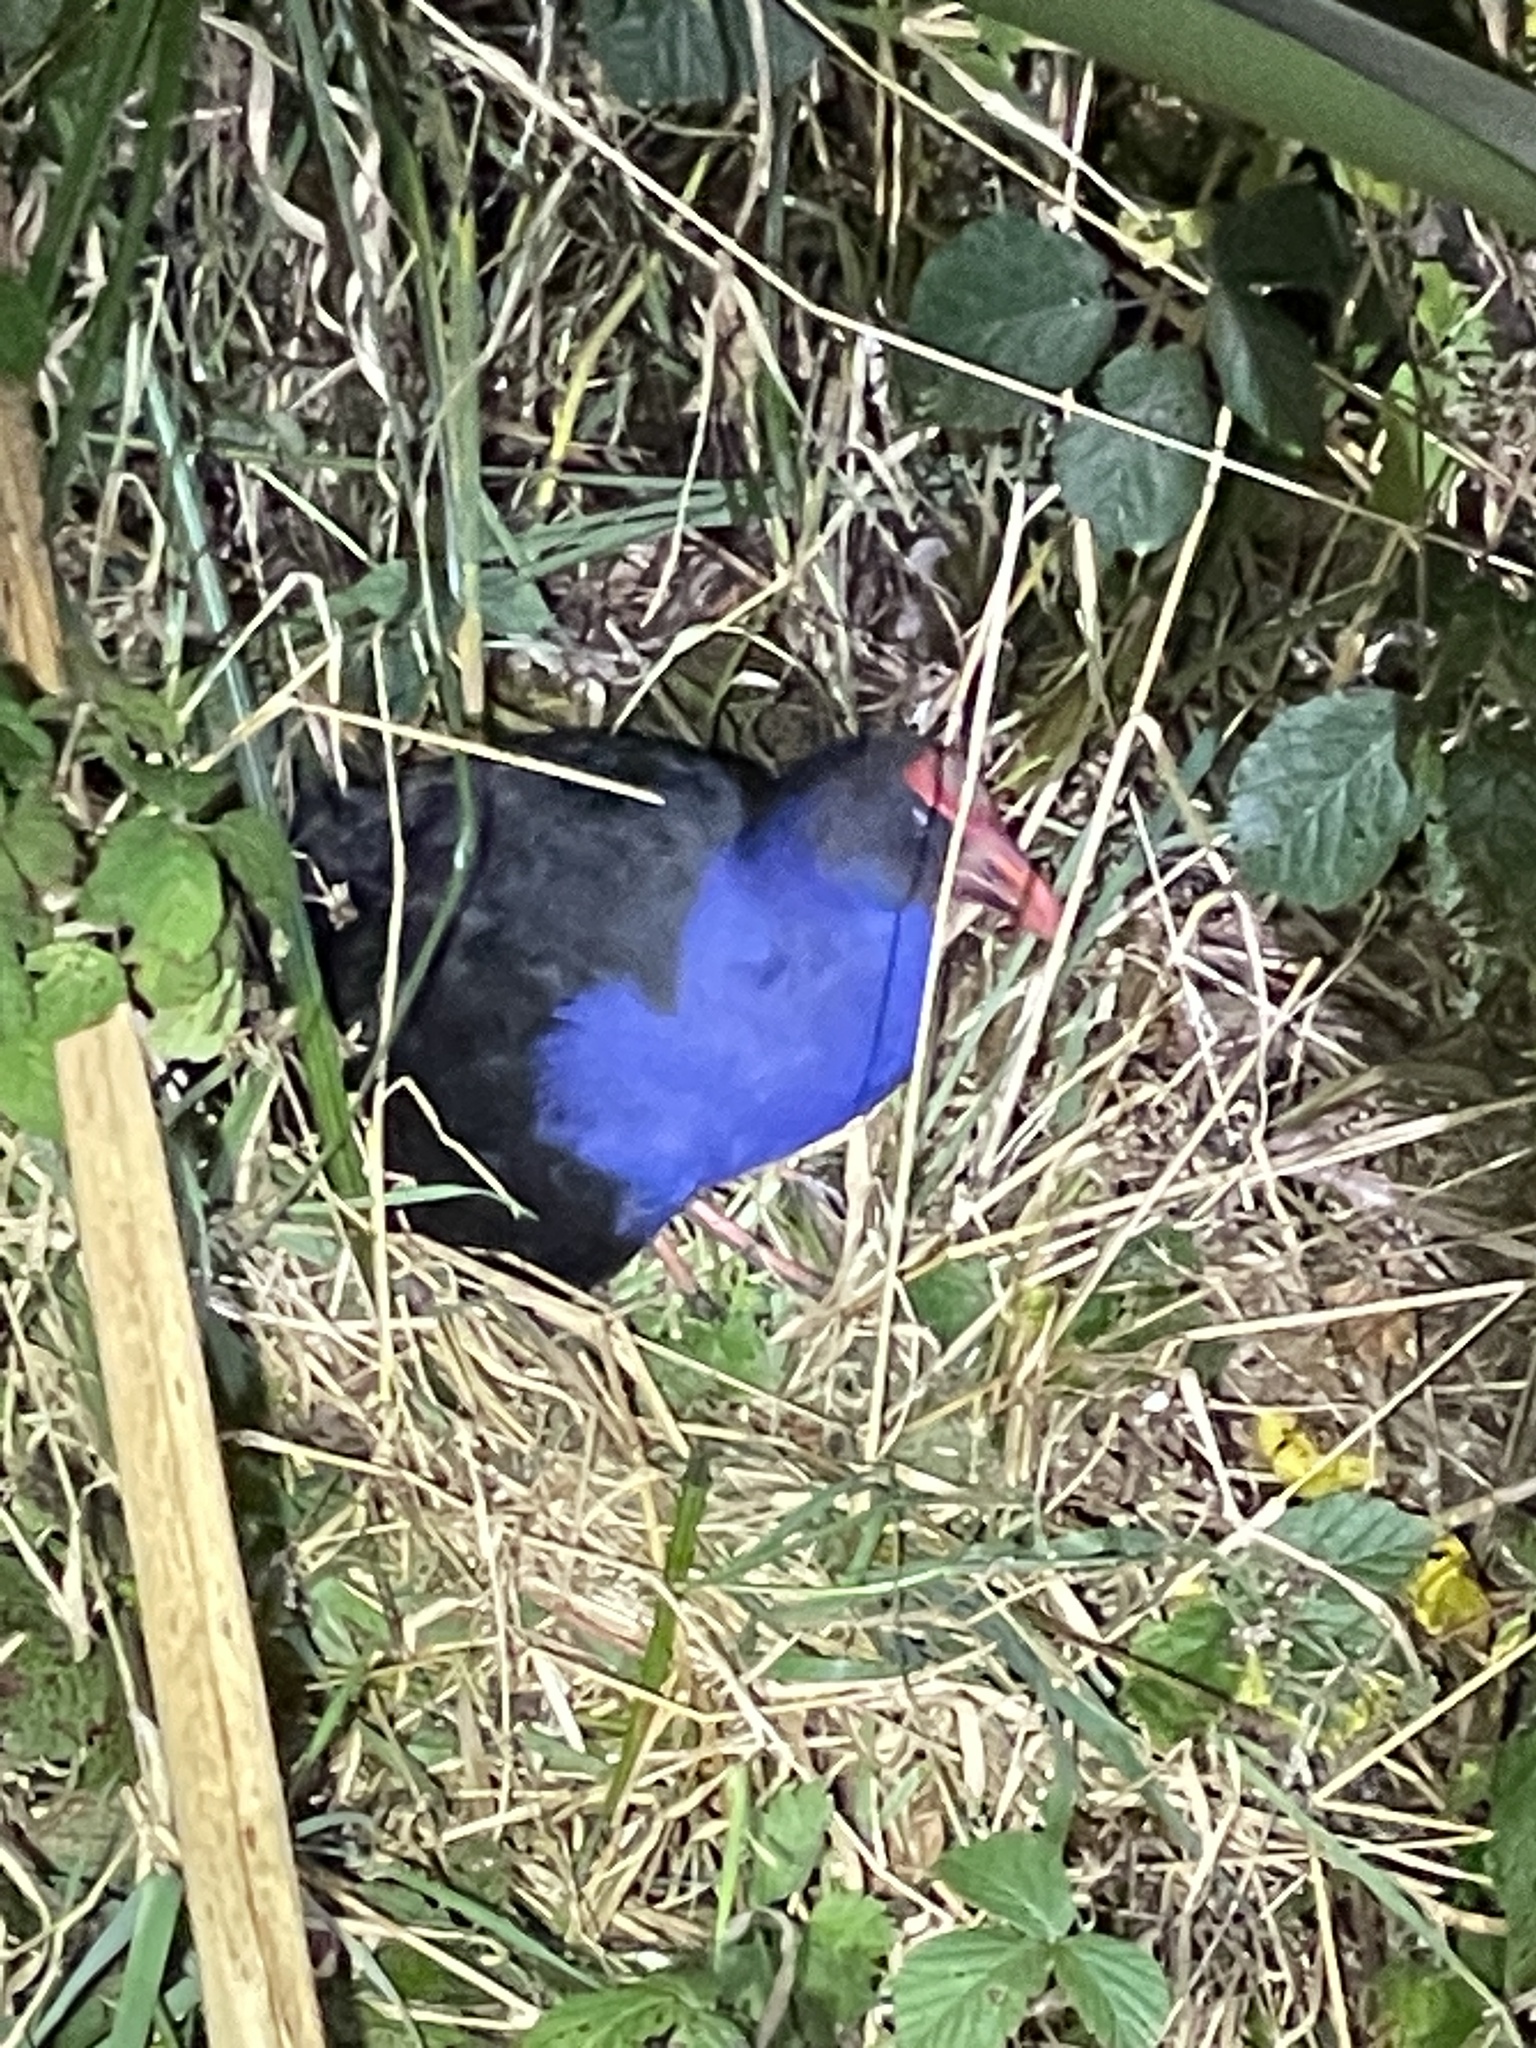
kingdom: Animalia
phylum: Chordata
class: Aves
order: Gruiformes
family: Rallidae
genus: Porphyrio
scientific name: Porphyrio melanotus
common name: Australasian swamphen
